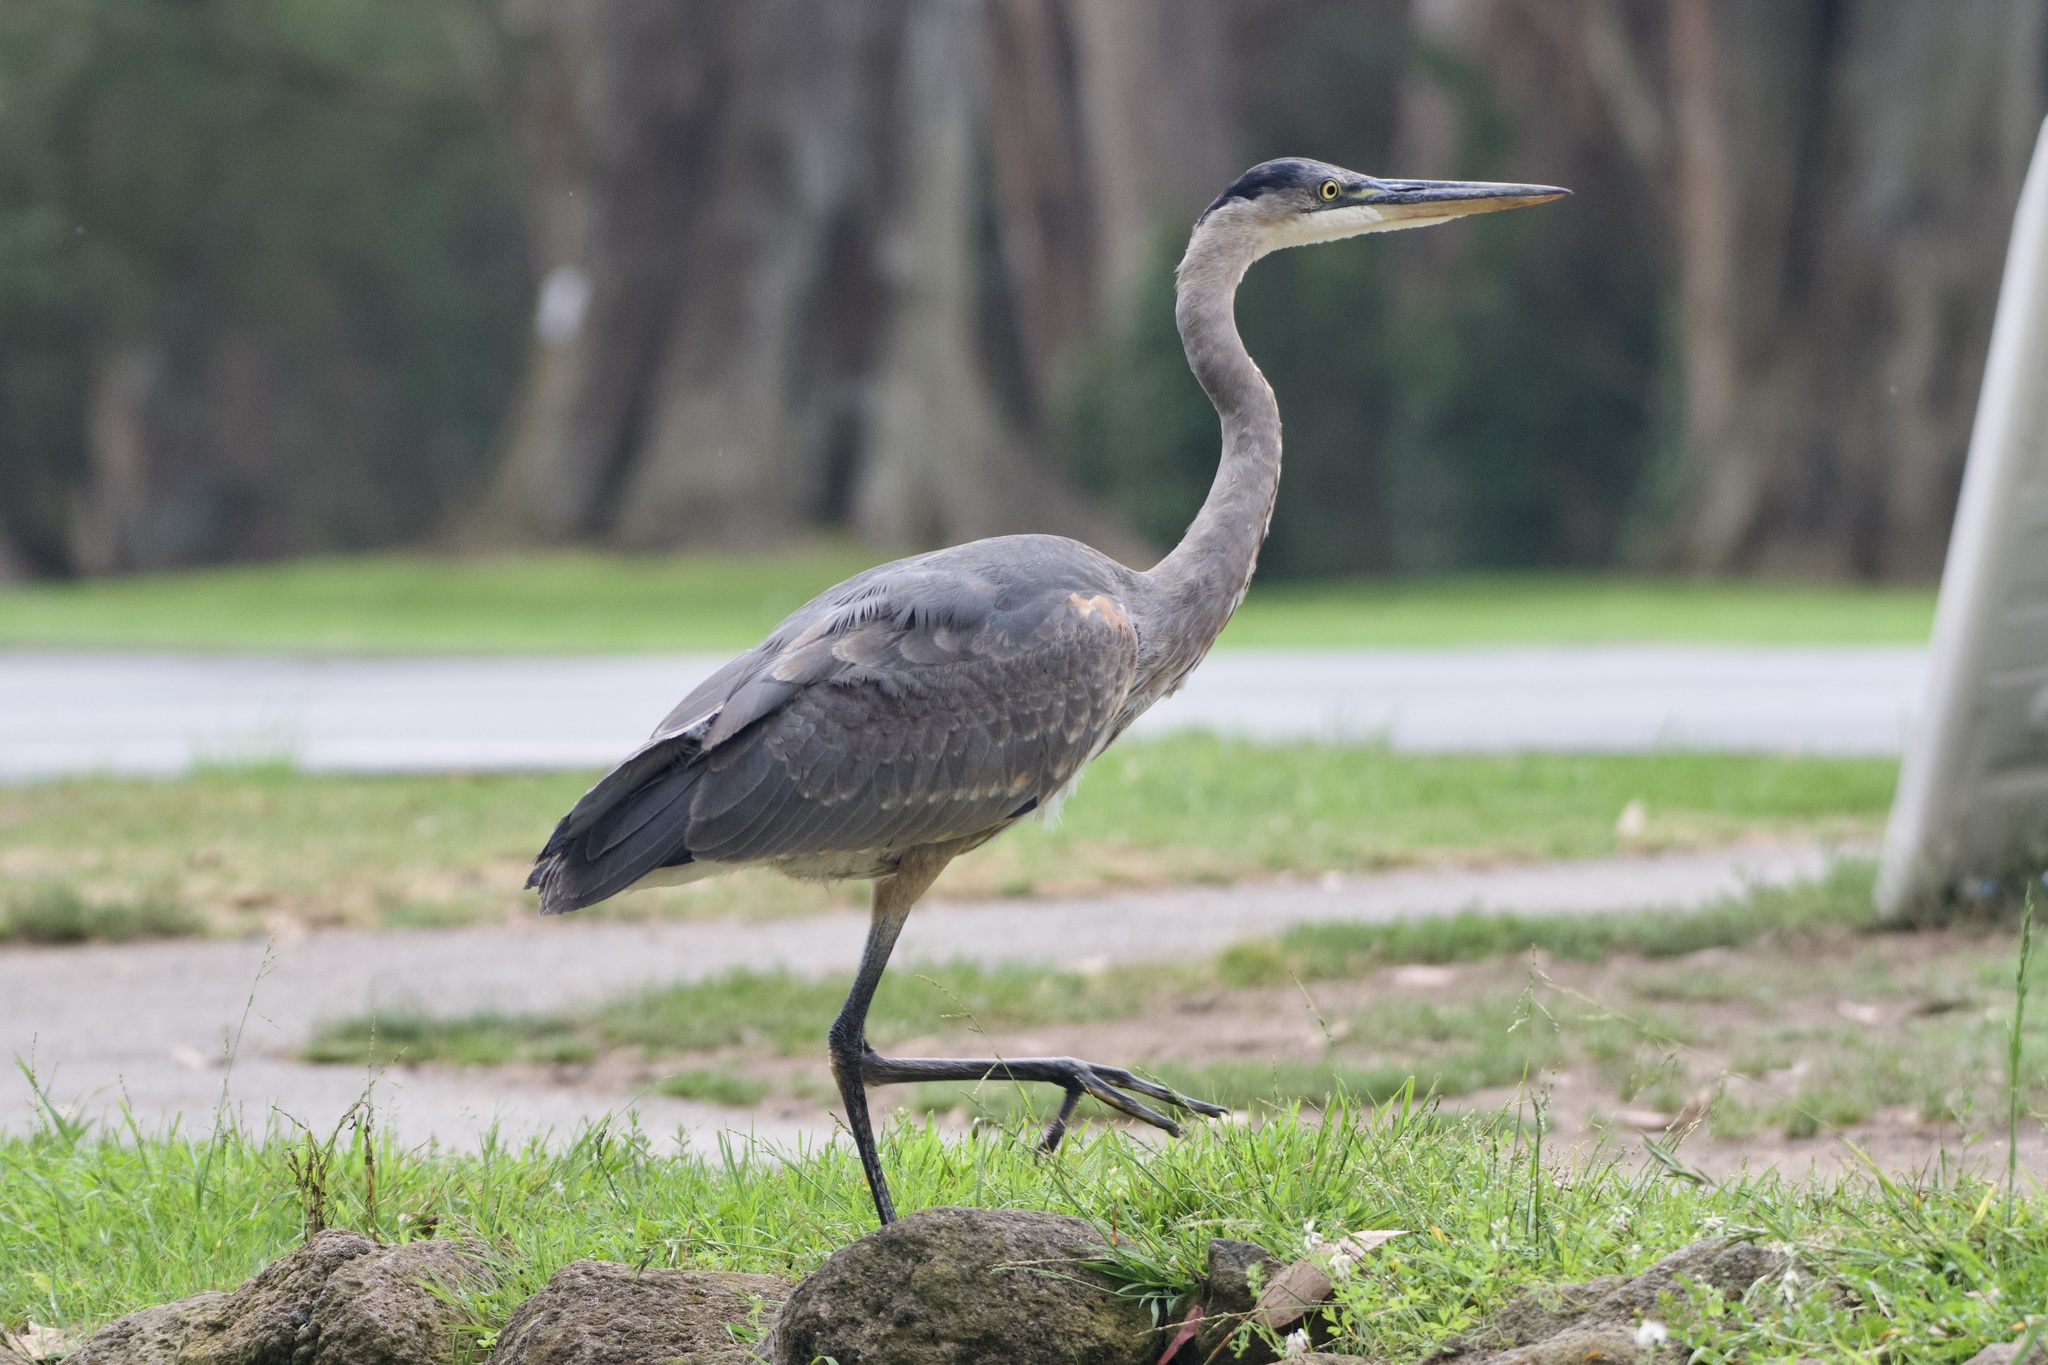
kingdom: Animalia
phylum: Chordata
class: Aves
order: Pelecaniformes
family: Ardeidae
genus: Ardea
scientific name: Ardea herodias
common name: Great blue heron
